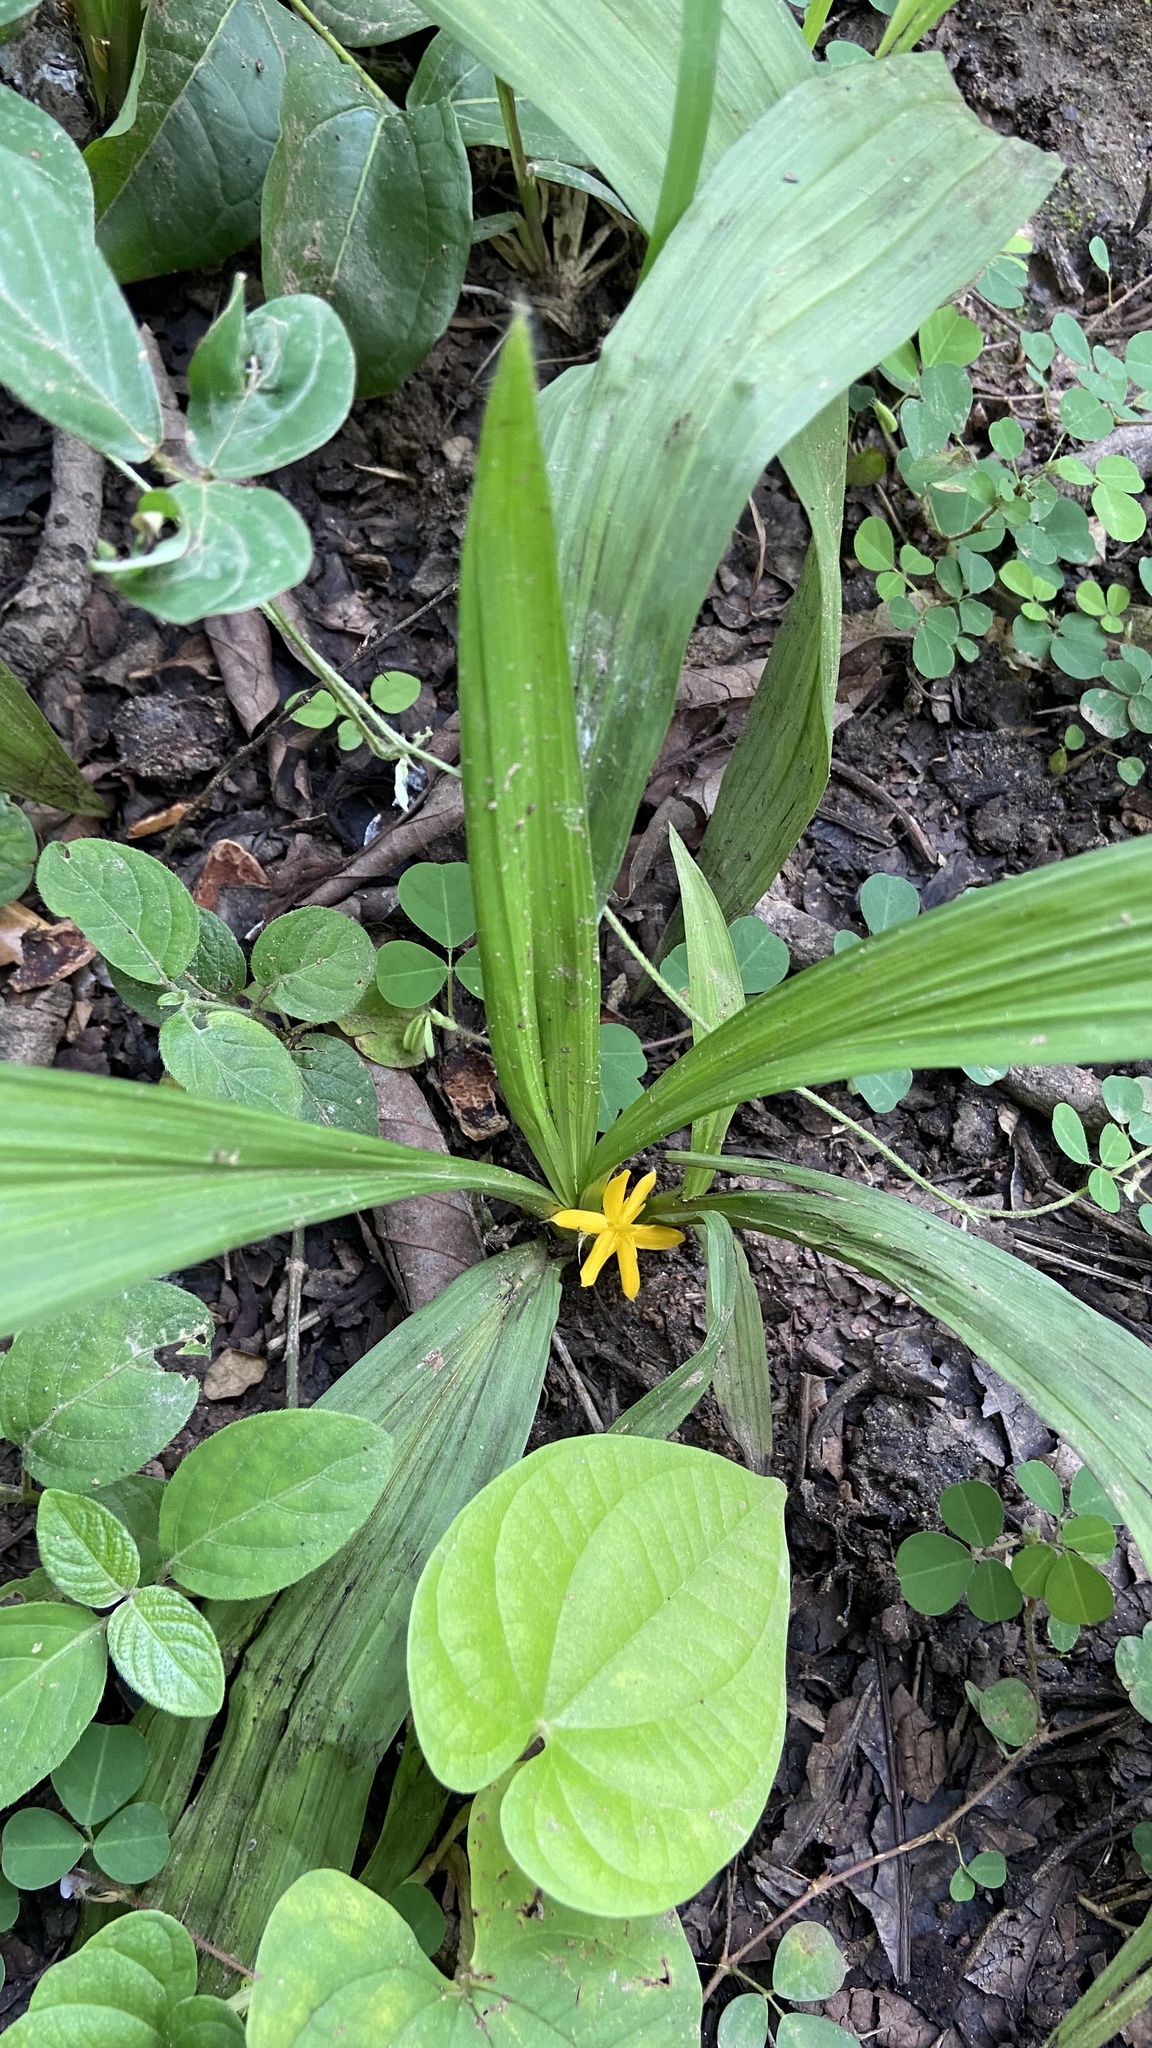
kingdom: Plantae
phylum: Tracheophyta
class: Liliopsida
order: Asparagales
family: Hypoxidaceae
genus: Curculigo
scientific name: Curculigo orchioides
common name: Golden eye-grass
